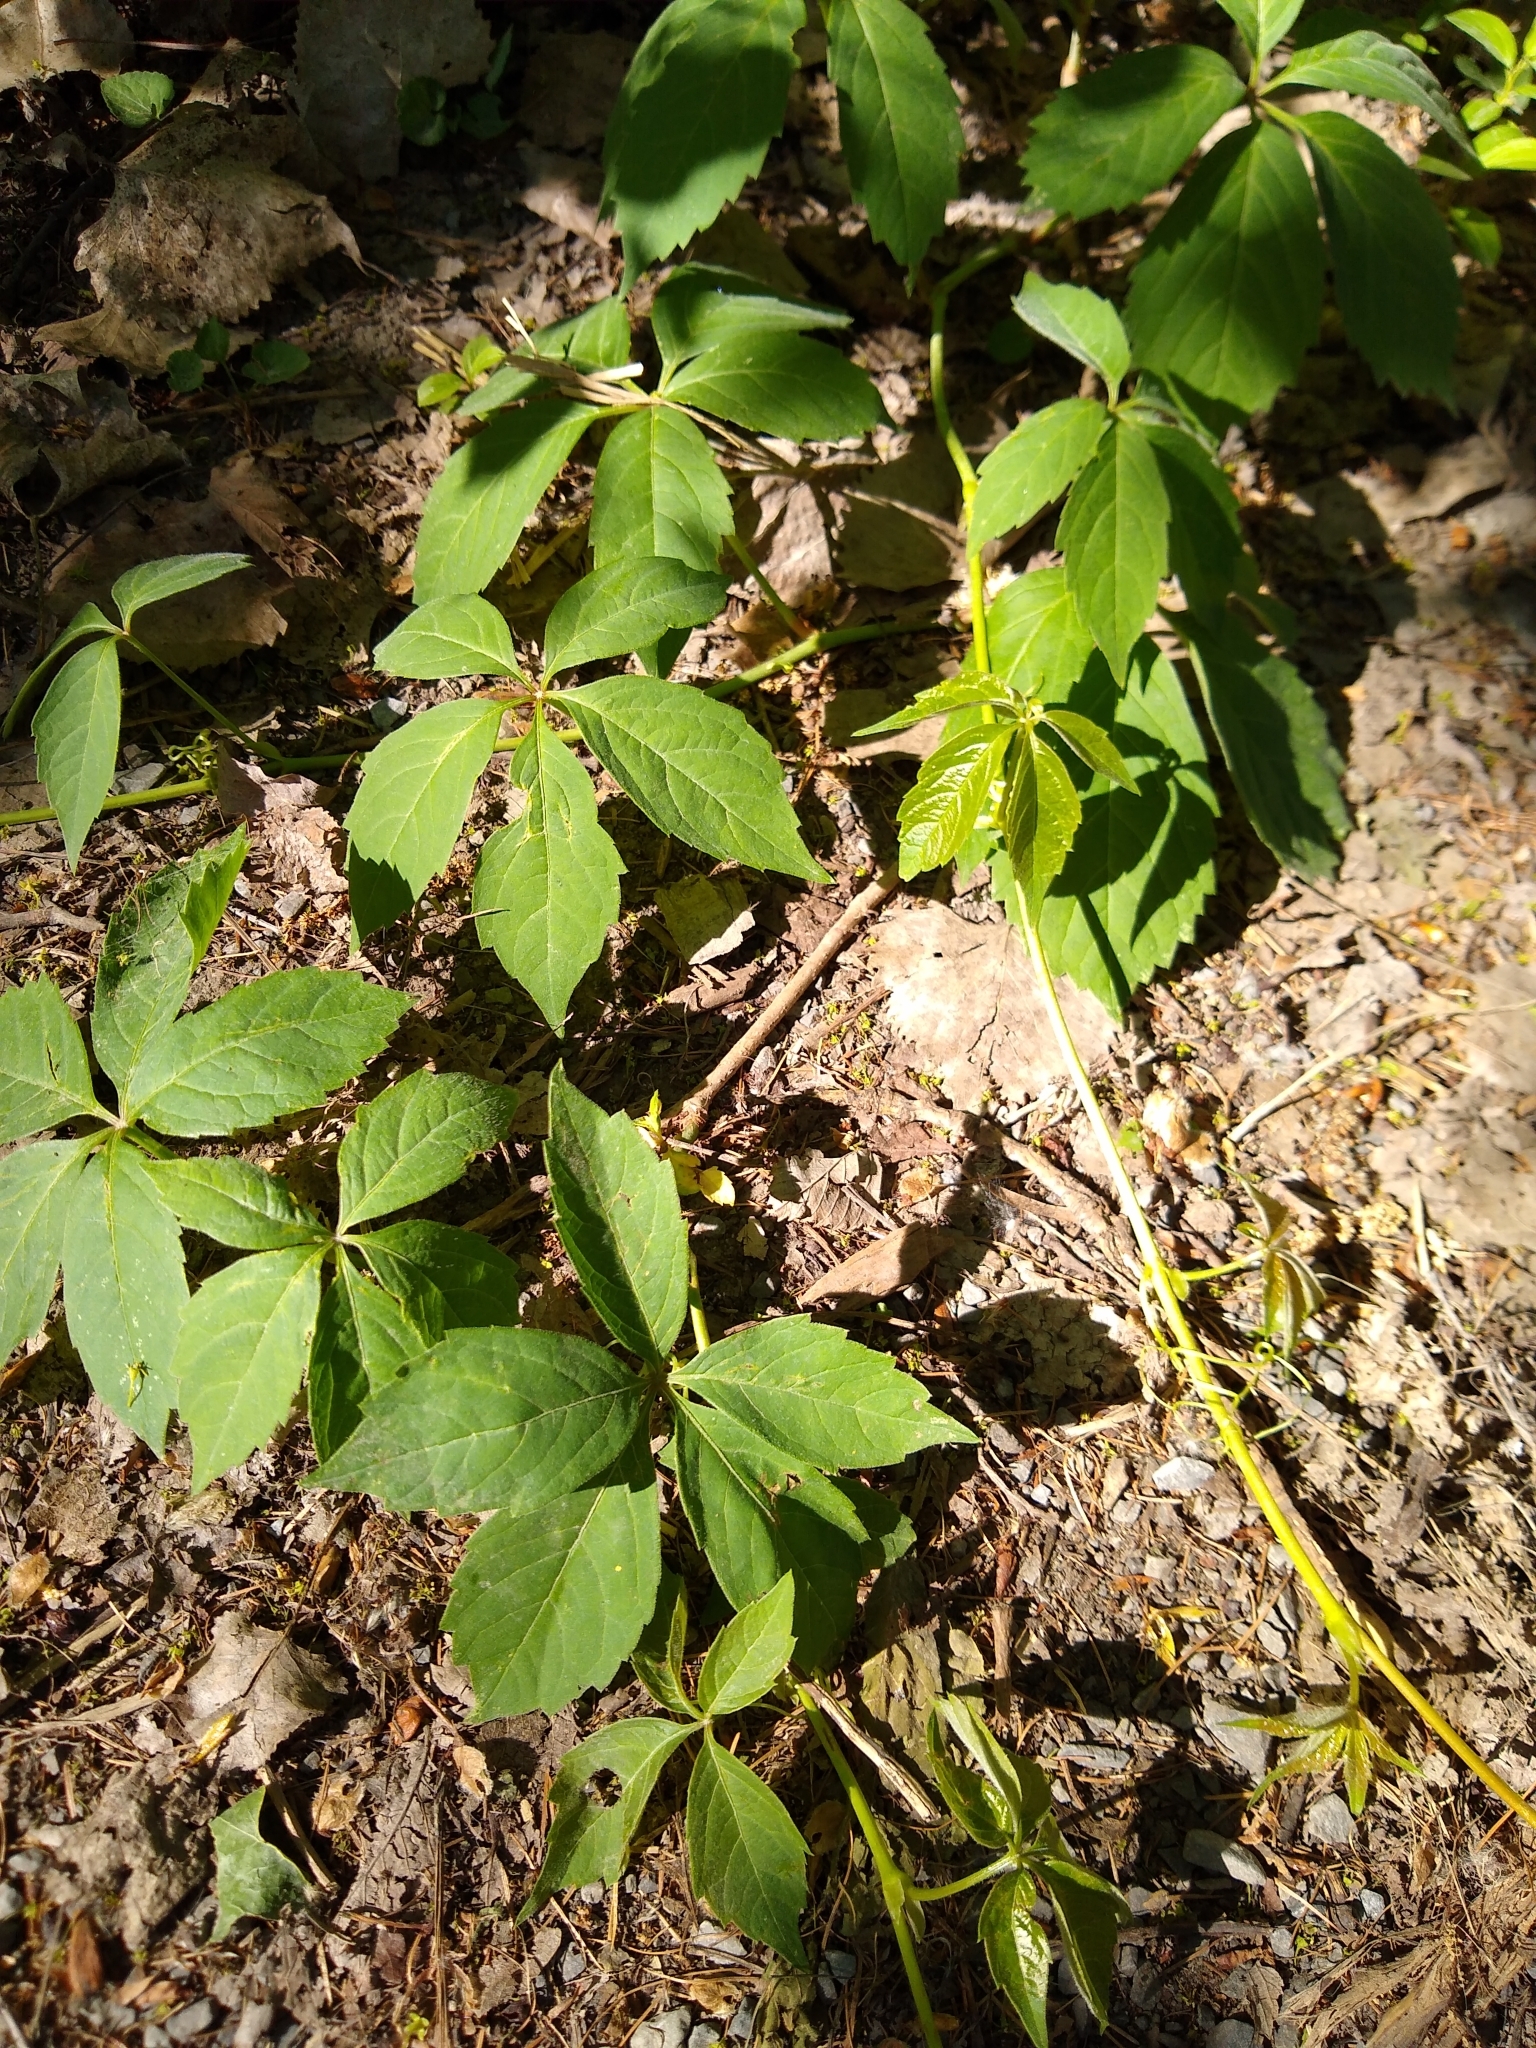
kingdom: Plantae
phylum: Tracheophyta
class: Magnoliopsida
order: Vitales
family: Vitaceae
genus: Parthenocissus
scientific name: Parthenocissus quinquefolia
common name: Virginia-creeper
